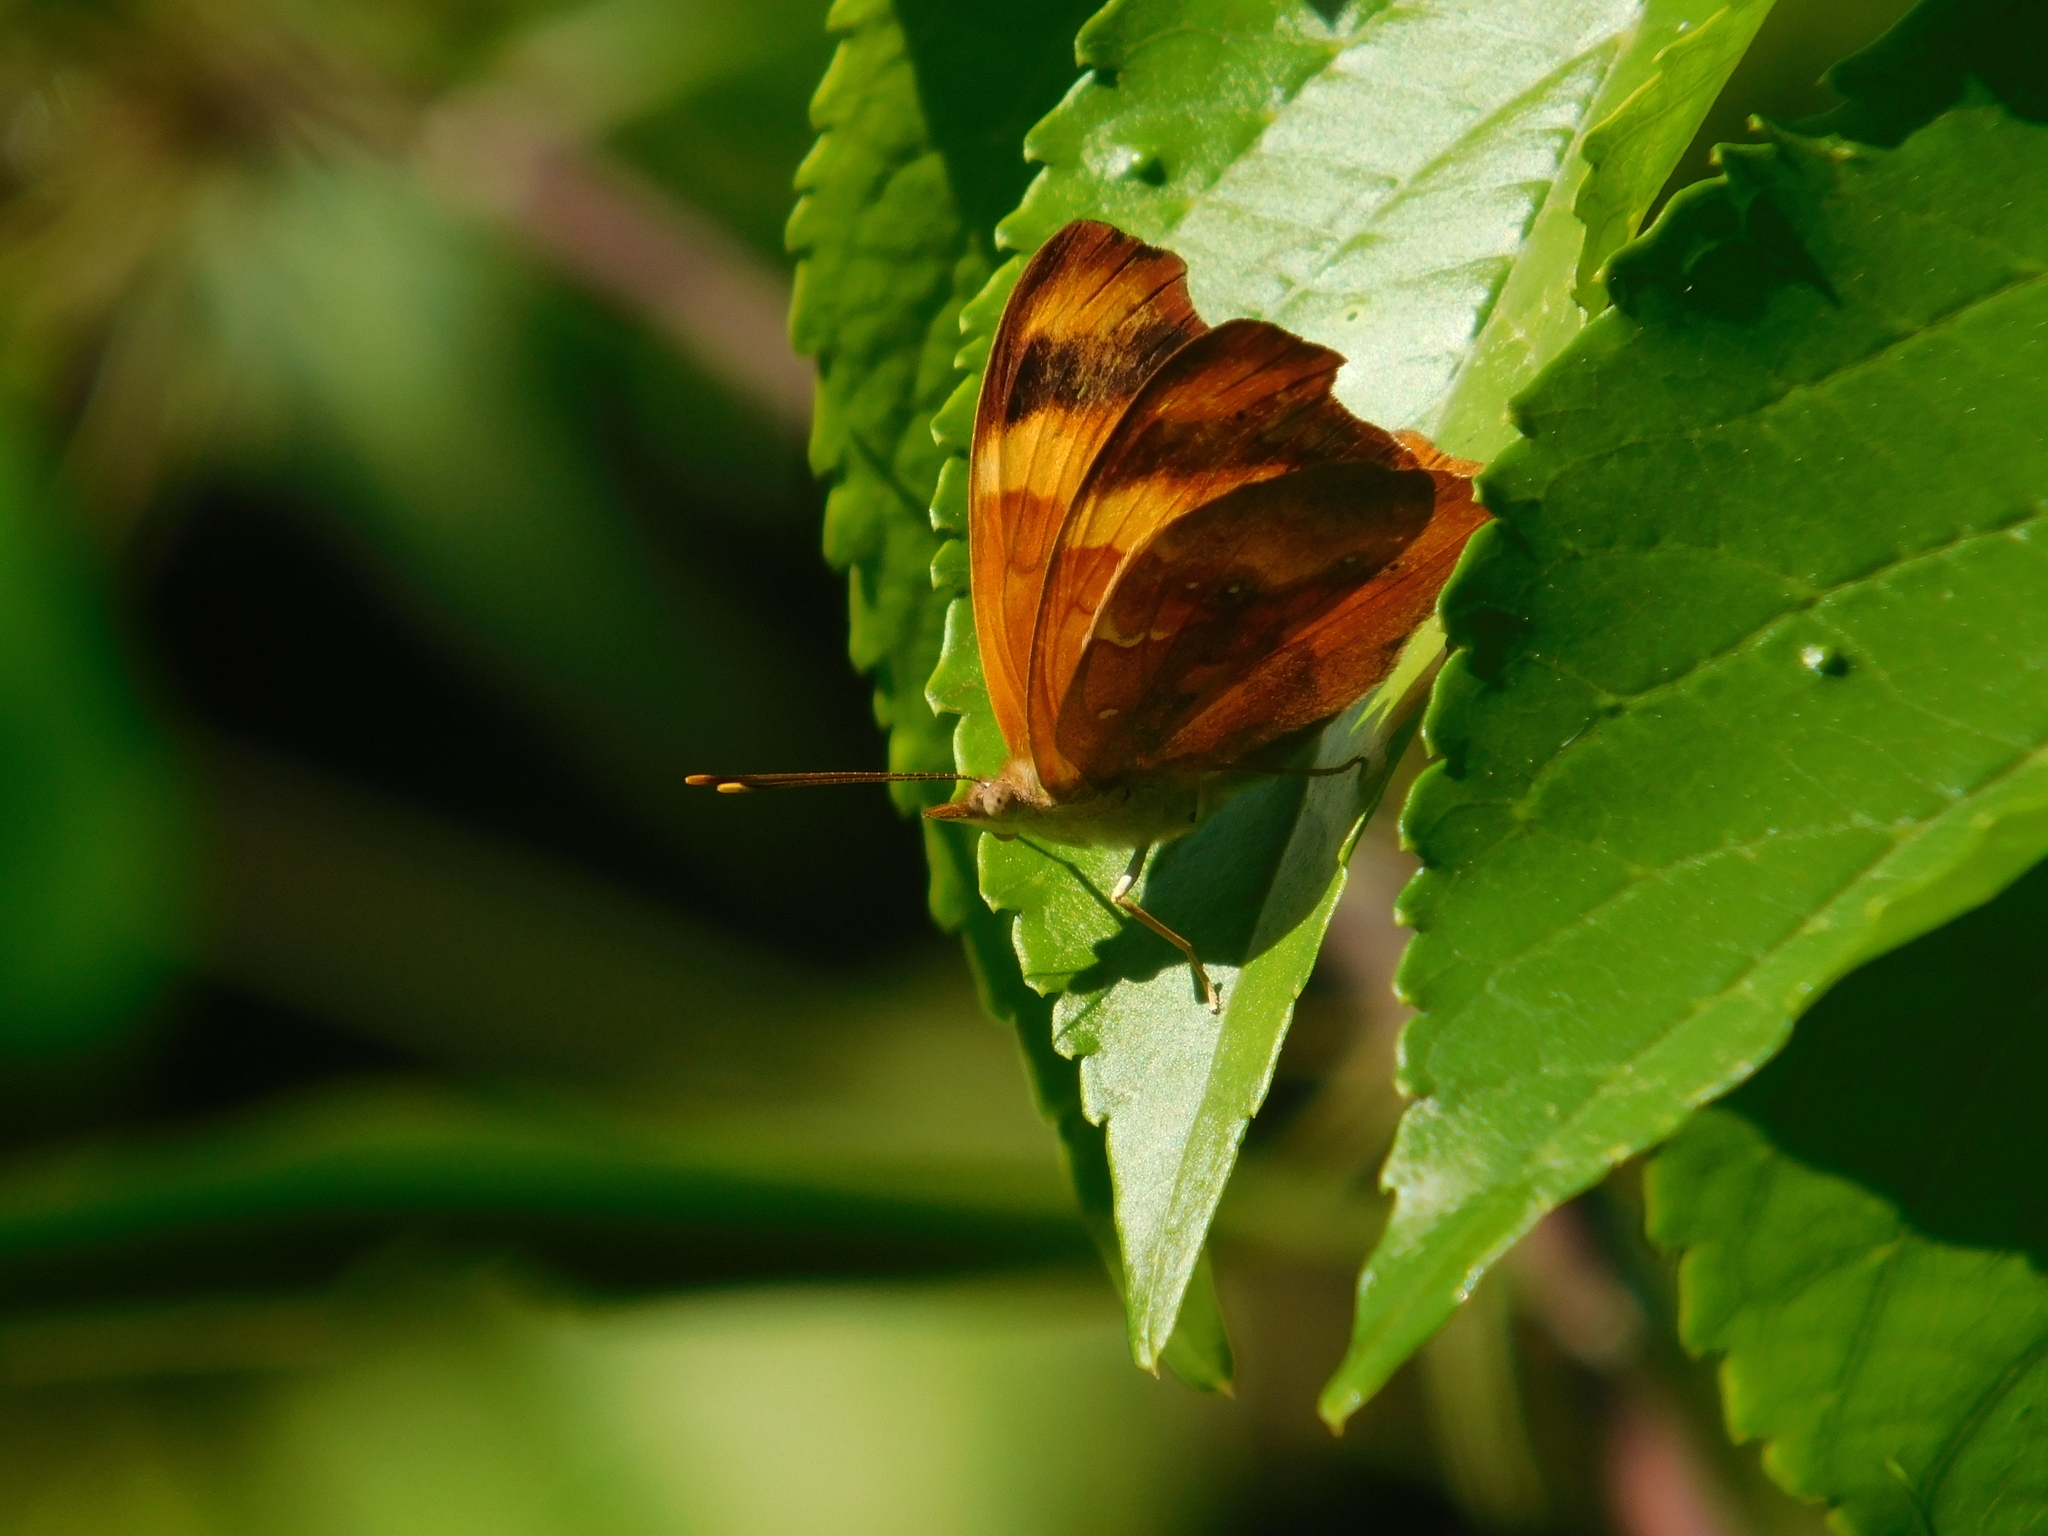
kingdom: Animalia
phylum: Arthropoda
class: Insecta
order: Lepidoptera
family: Nymphalidae
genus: Temenis
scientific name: Temenis laothoe
